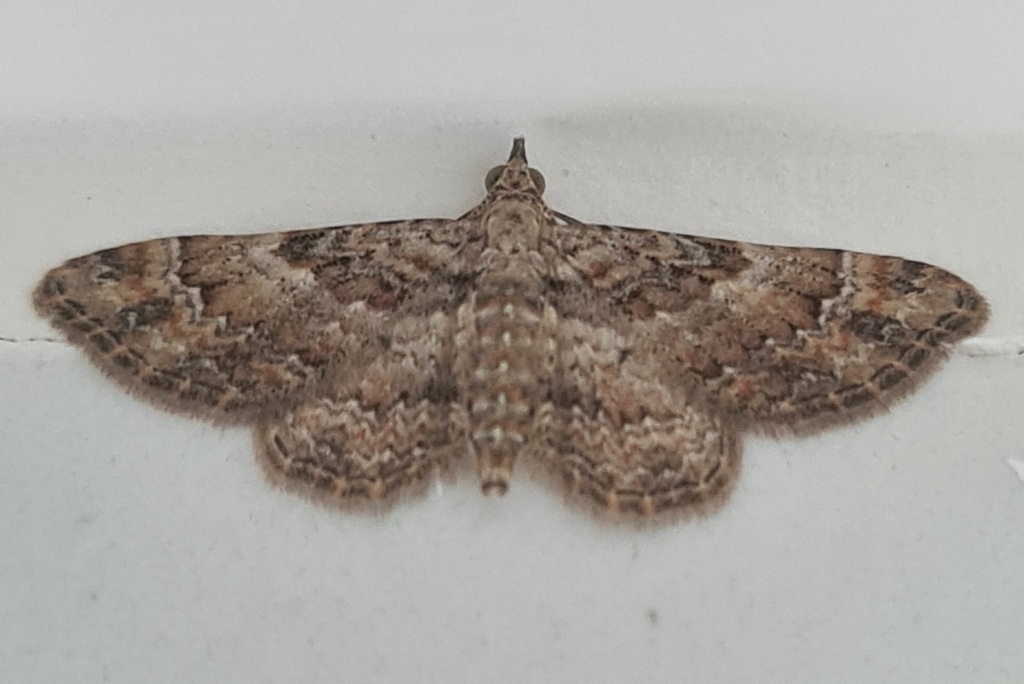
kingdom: Animalia
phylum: Arthropoda
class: Insecta
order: Lepidoptera
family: Geometridae
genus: Gymnoscelis
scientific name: Gymnoscelis rufifasciata
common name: Double-striped pug
